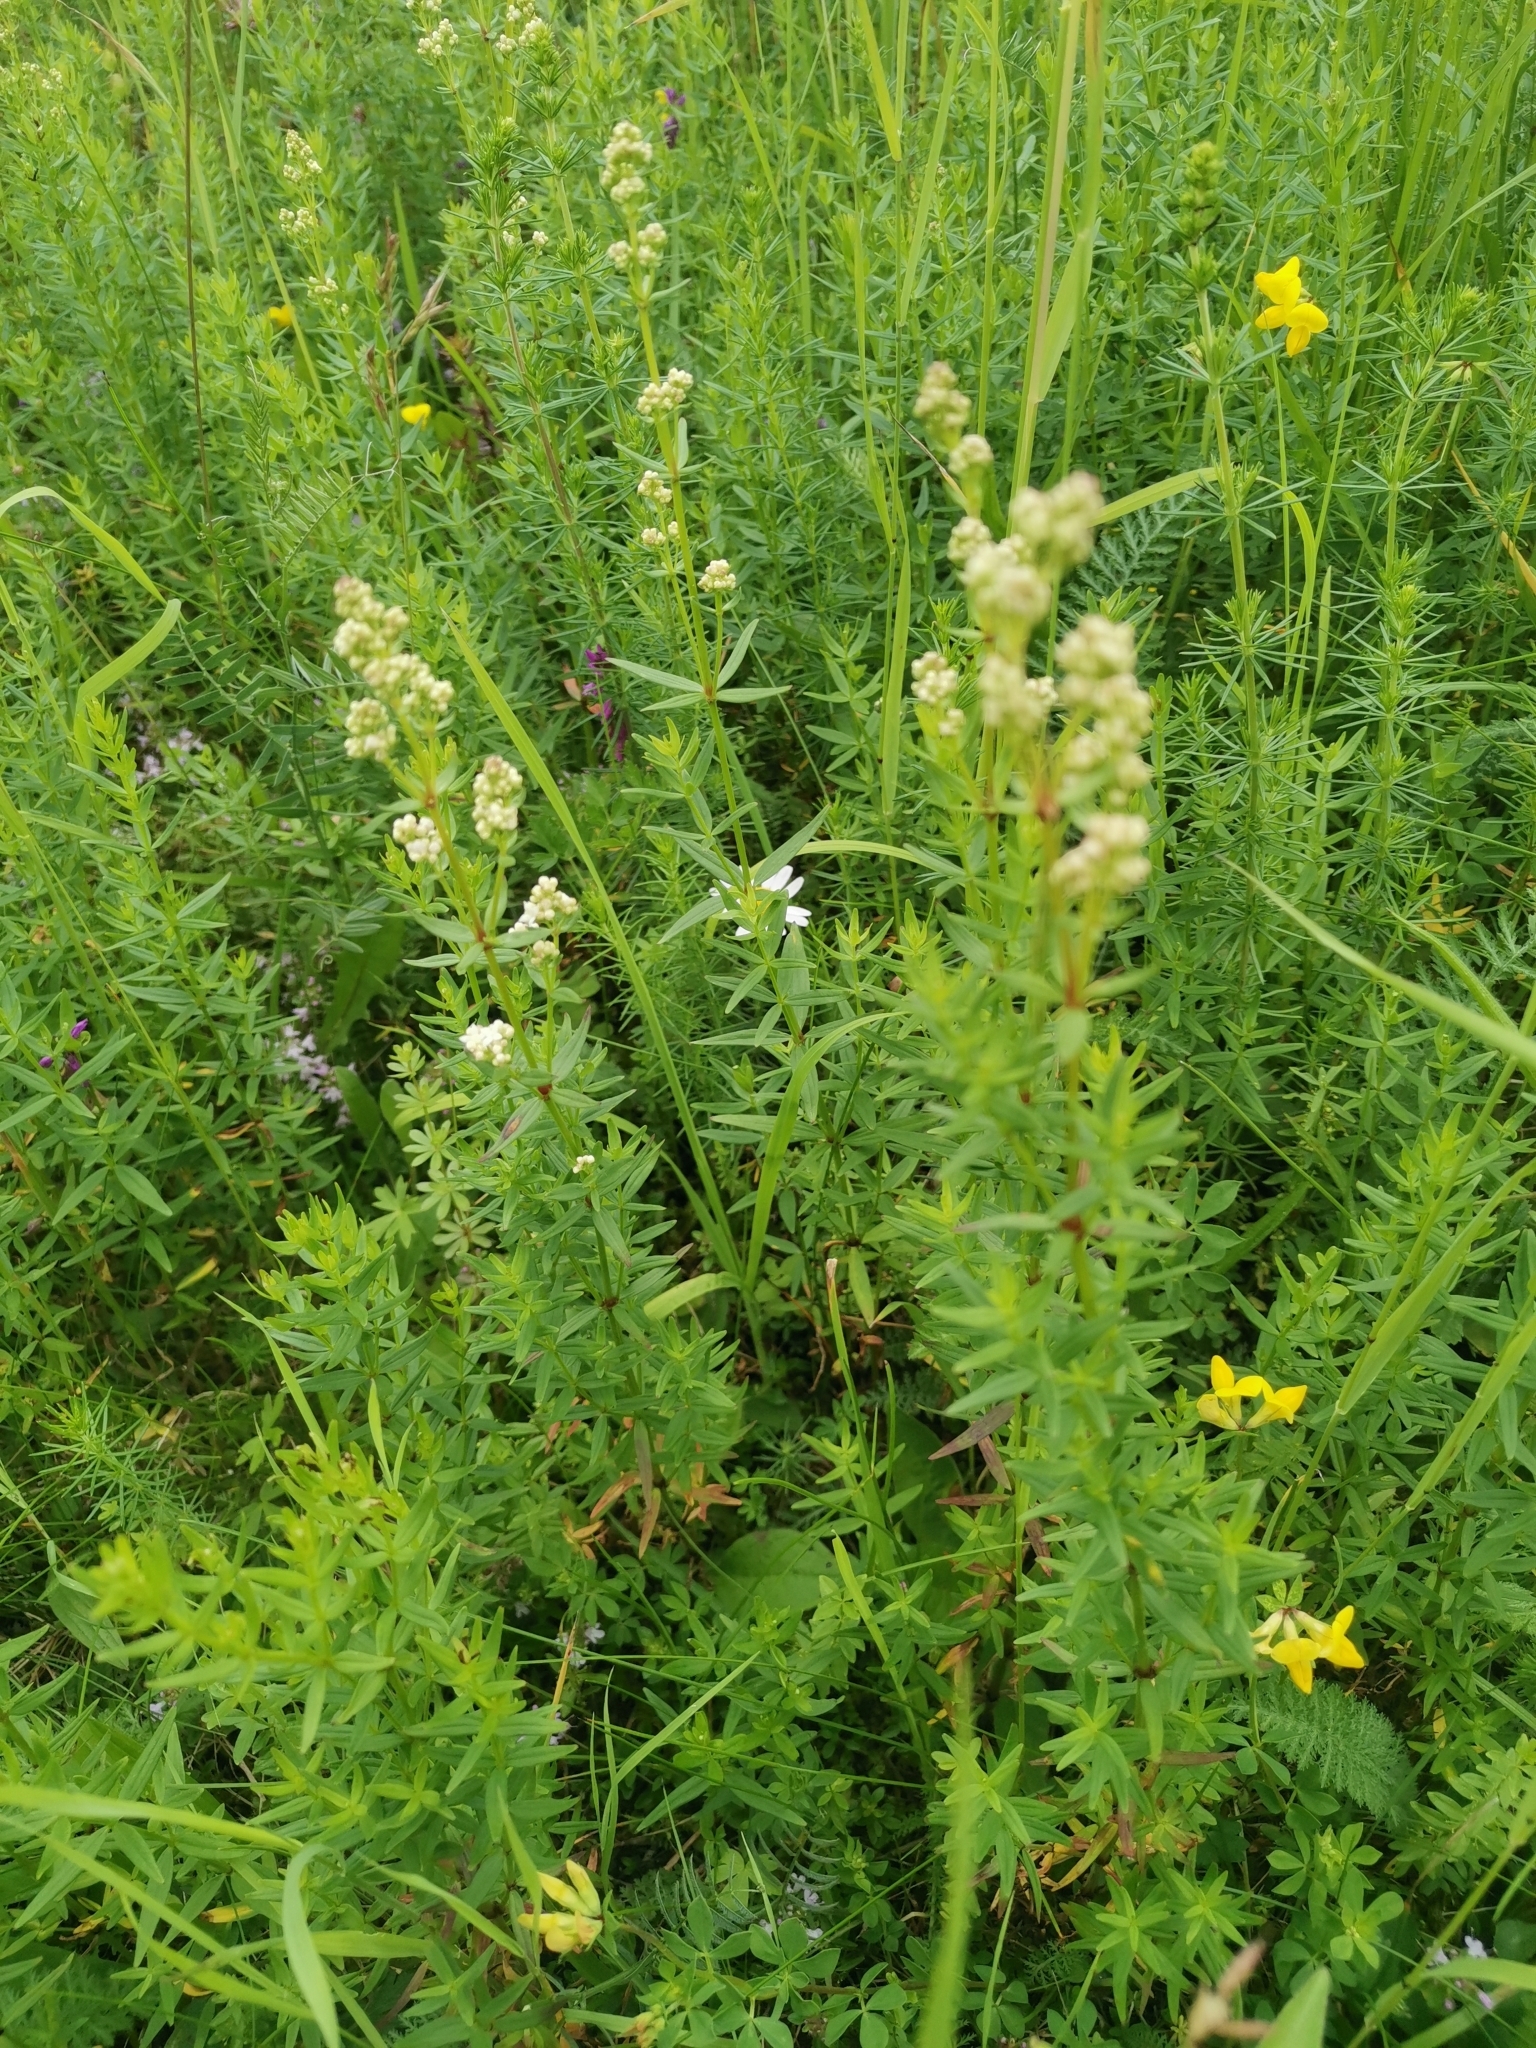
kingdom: Plantae
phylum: Tracheophyta
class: Magnoliopsida
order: Gentianales
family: Rubiaceae
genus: Galium
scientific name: Galium boreale
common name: Northern bedstraw
